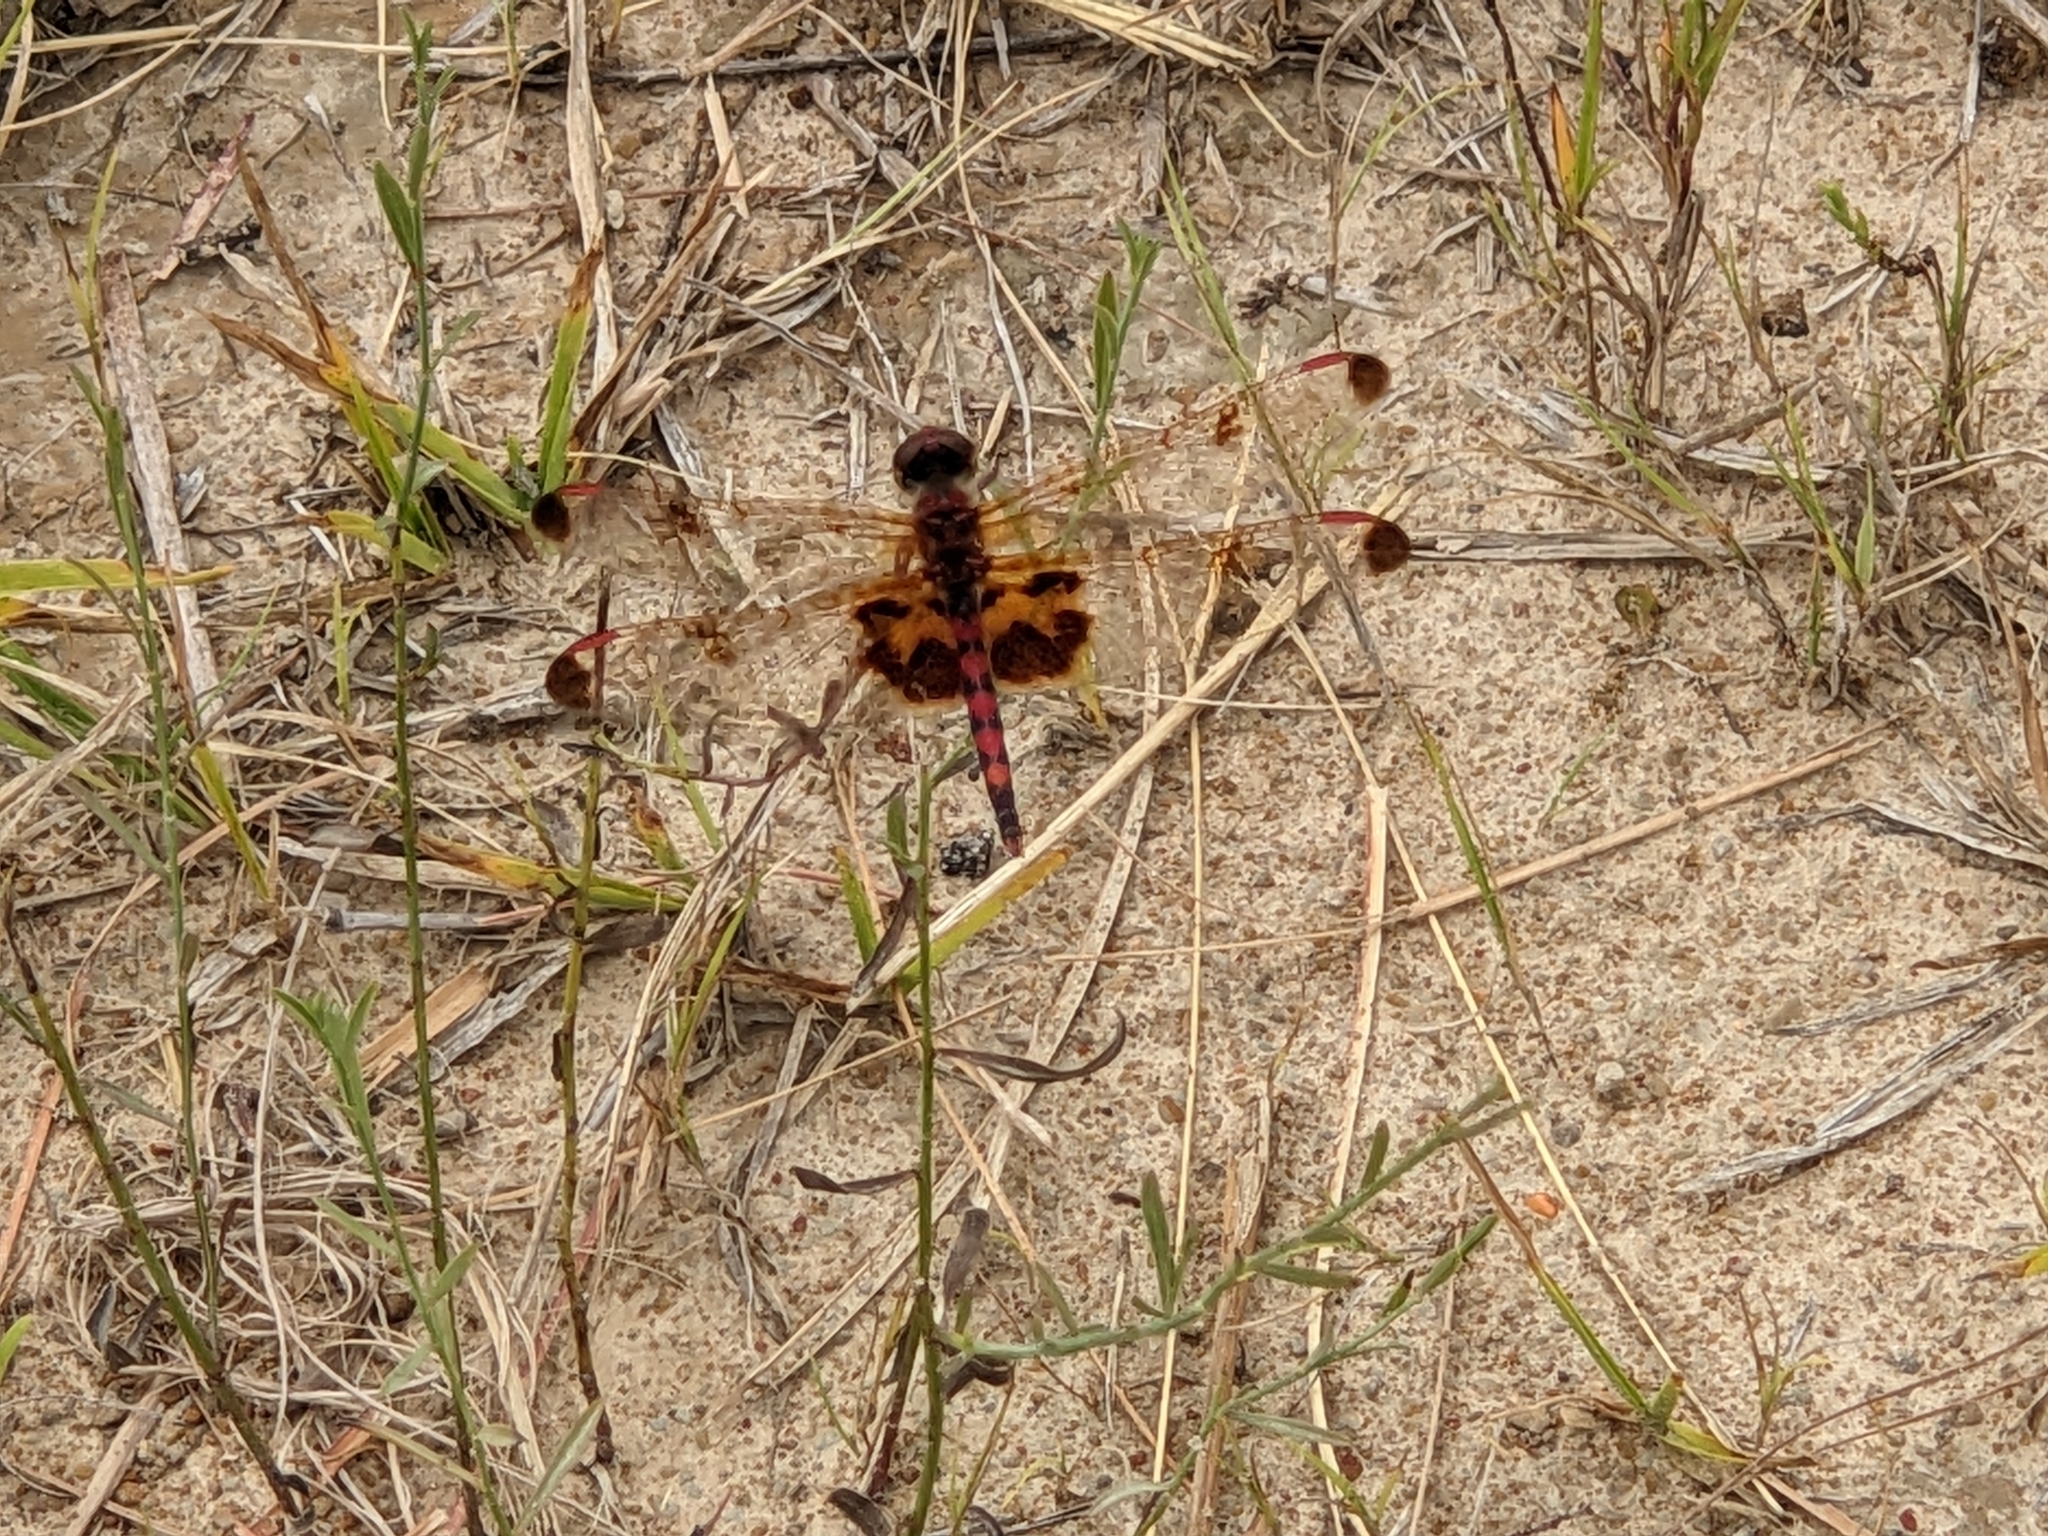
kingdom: Animalia
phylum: Arthropoda
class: Insecta
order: Odonata
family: Libellulidae
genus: Celithemis
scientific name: Celithemis elisa
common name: Calico pennant
